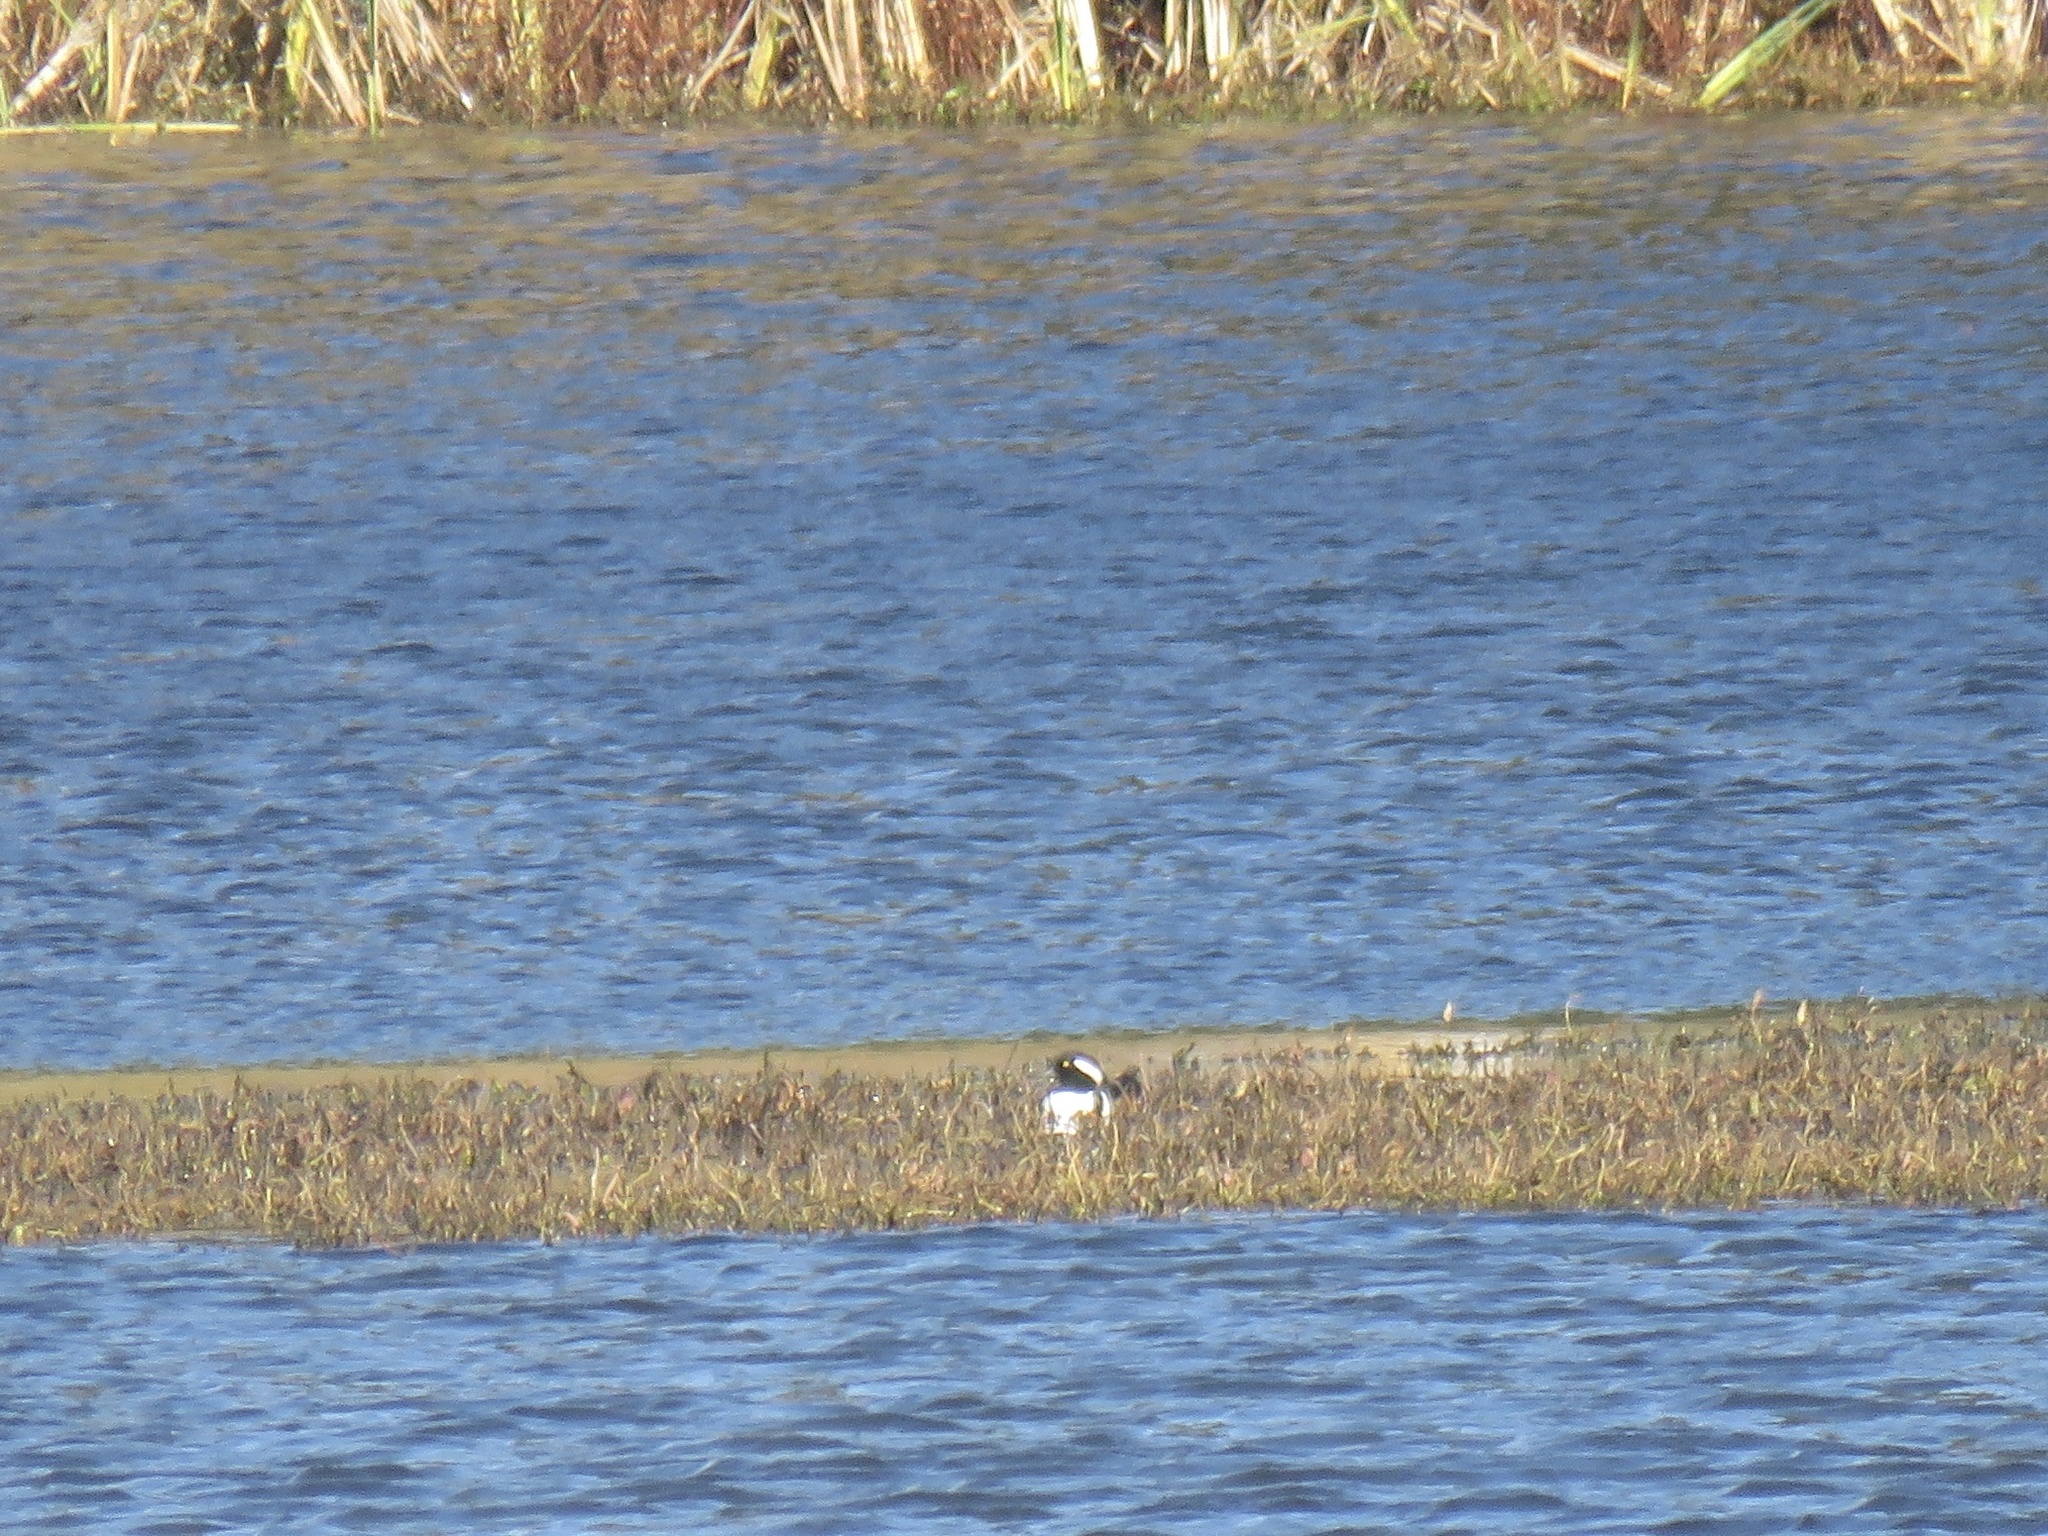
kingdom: Animalia
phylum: Chordata
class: Aves
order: Anseriformes
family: Anatidae
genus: Lophodytes
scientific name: Lophodytes cucullatus
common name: Hooded merganser
